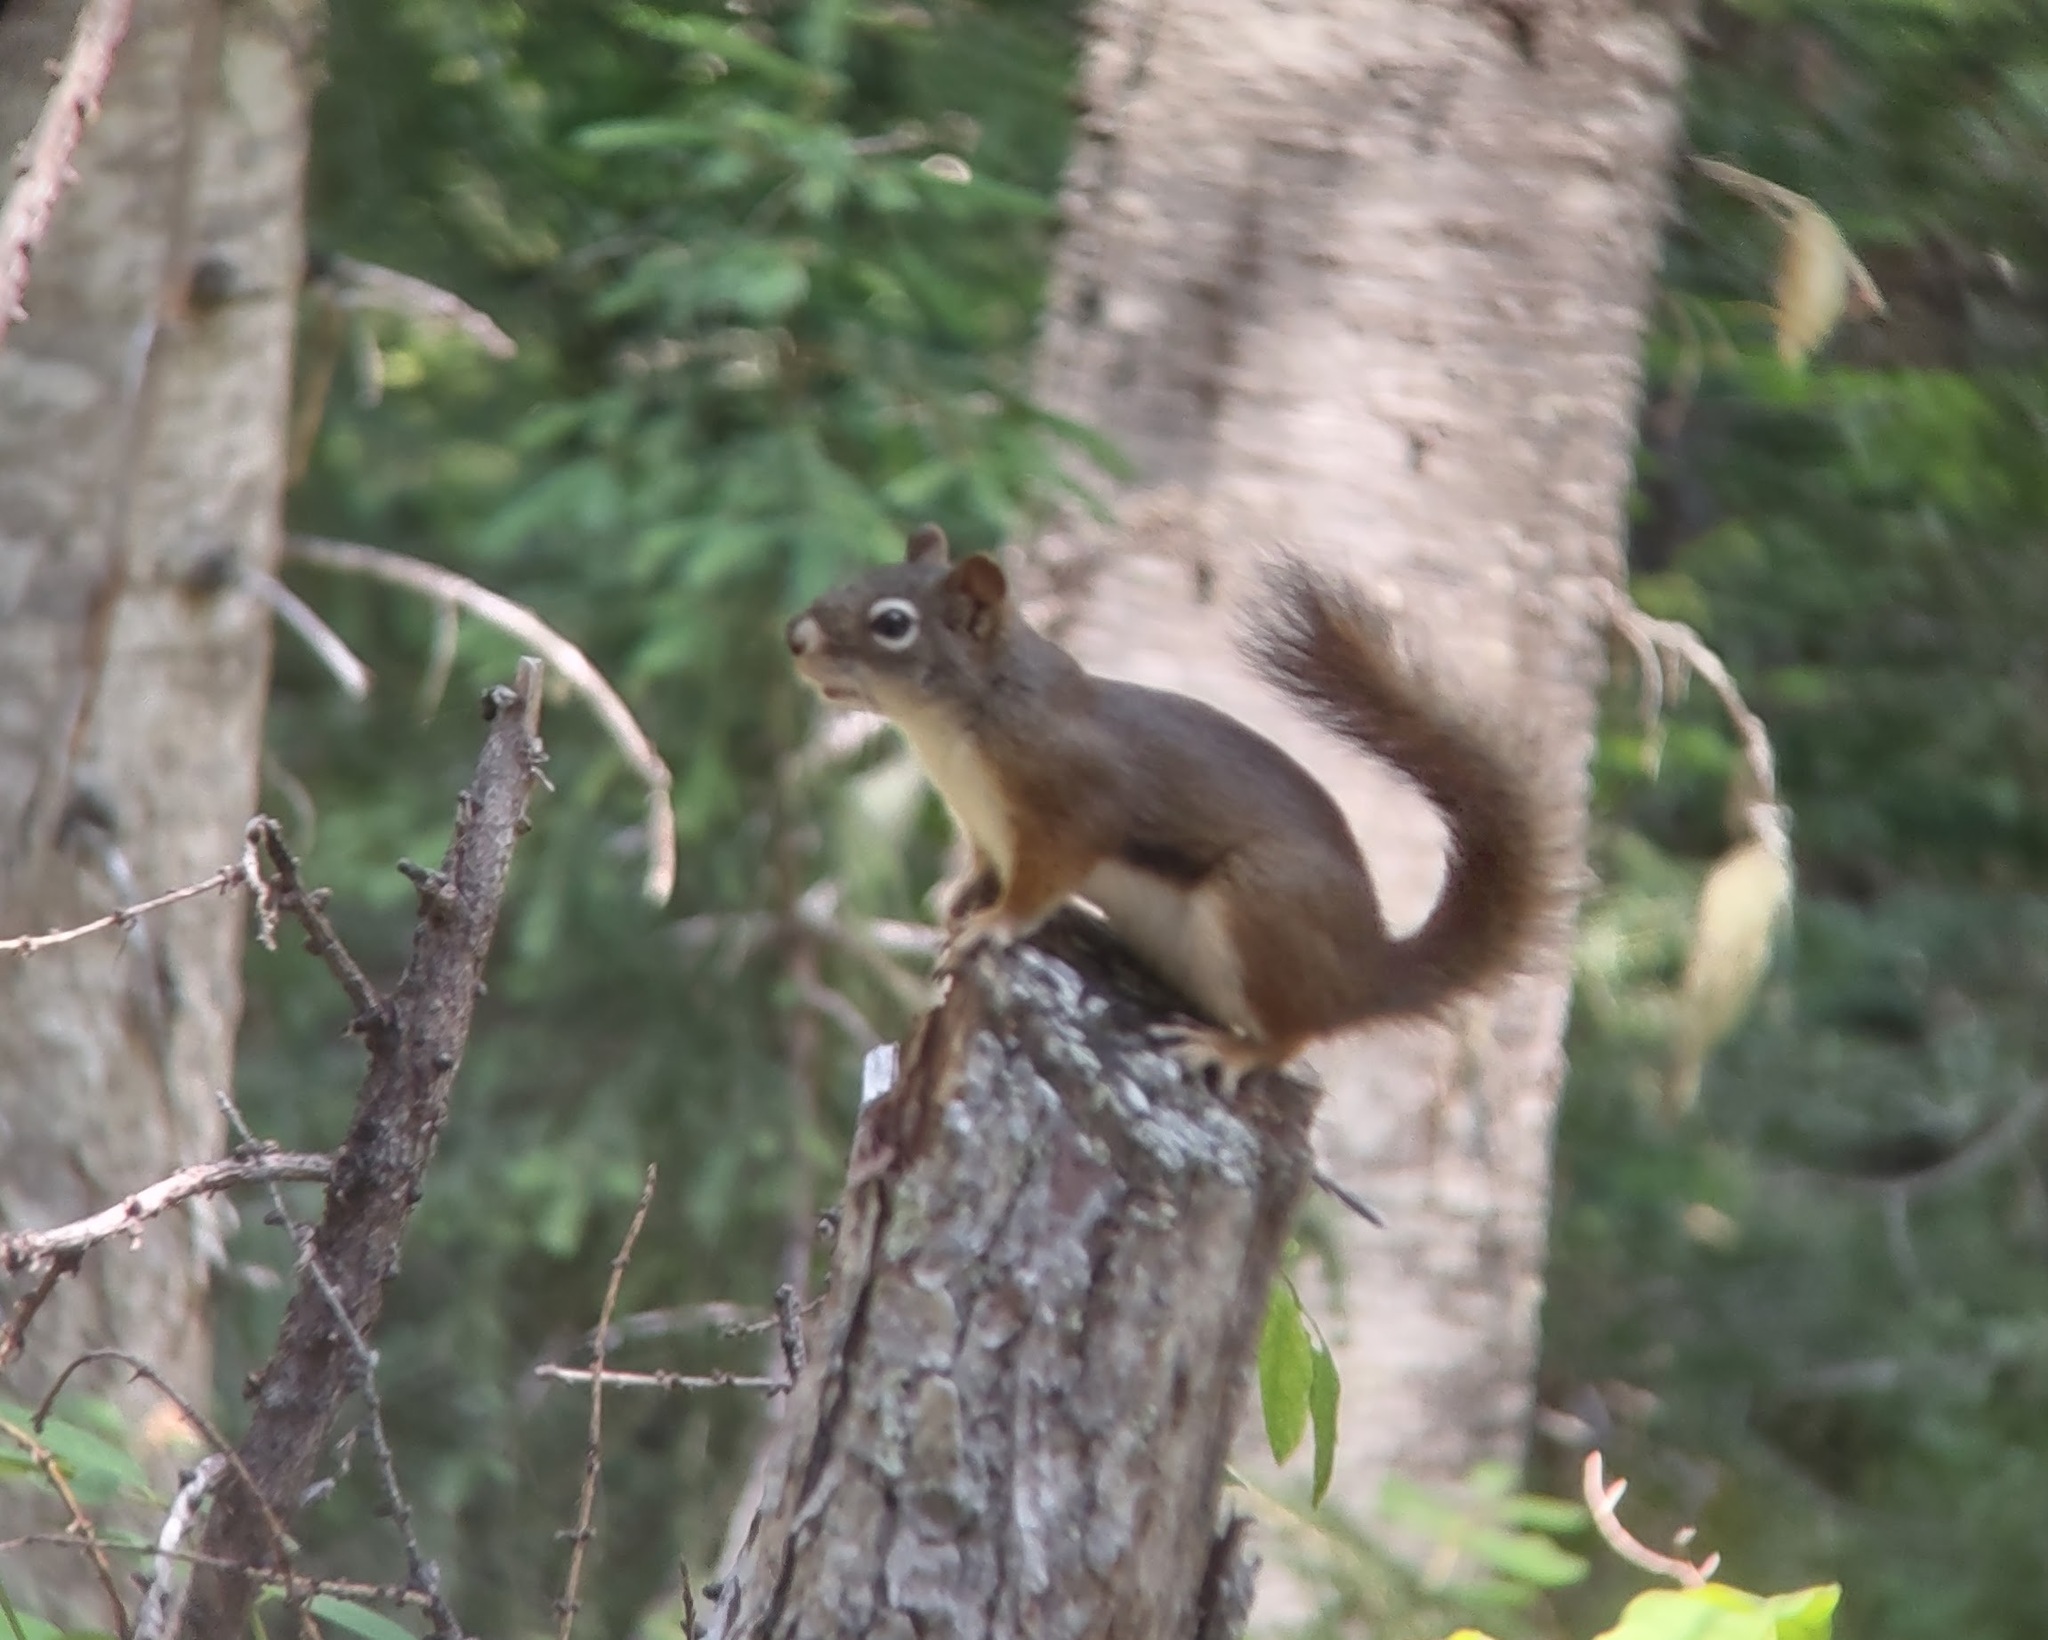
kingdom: Animalia
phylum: Chordata
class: Mammalia
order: Rodentia
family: Sciuridae
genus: Tamiasciurus
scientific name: Tamiasciurus hudsonicus
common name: Red squirrel
